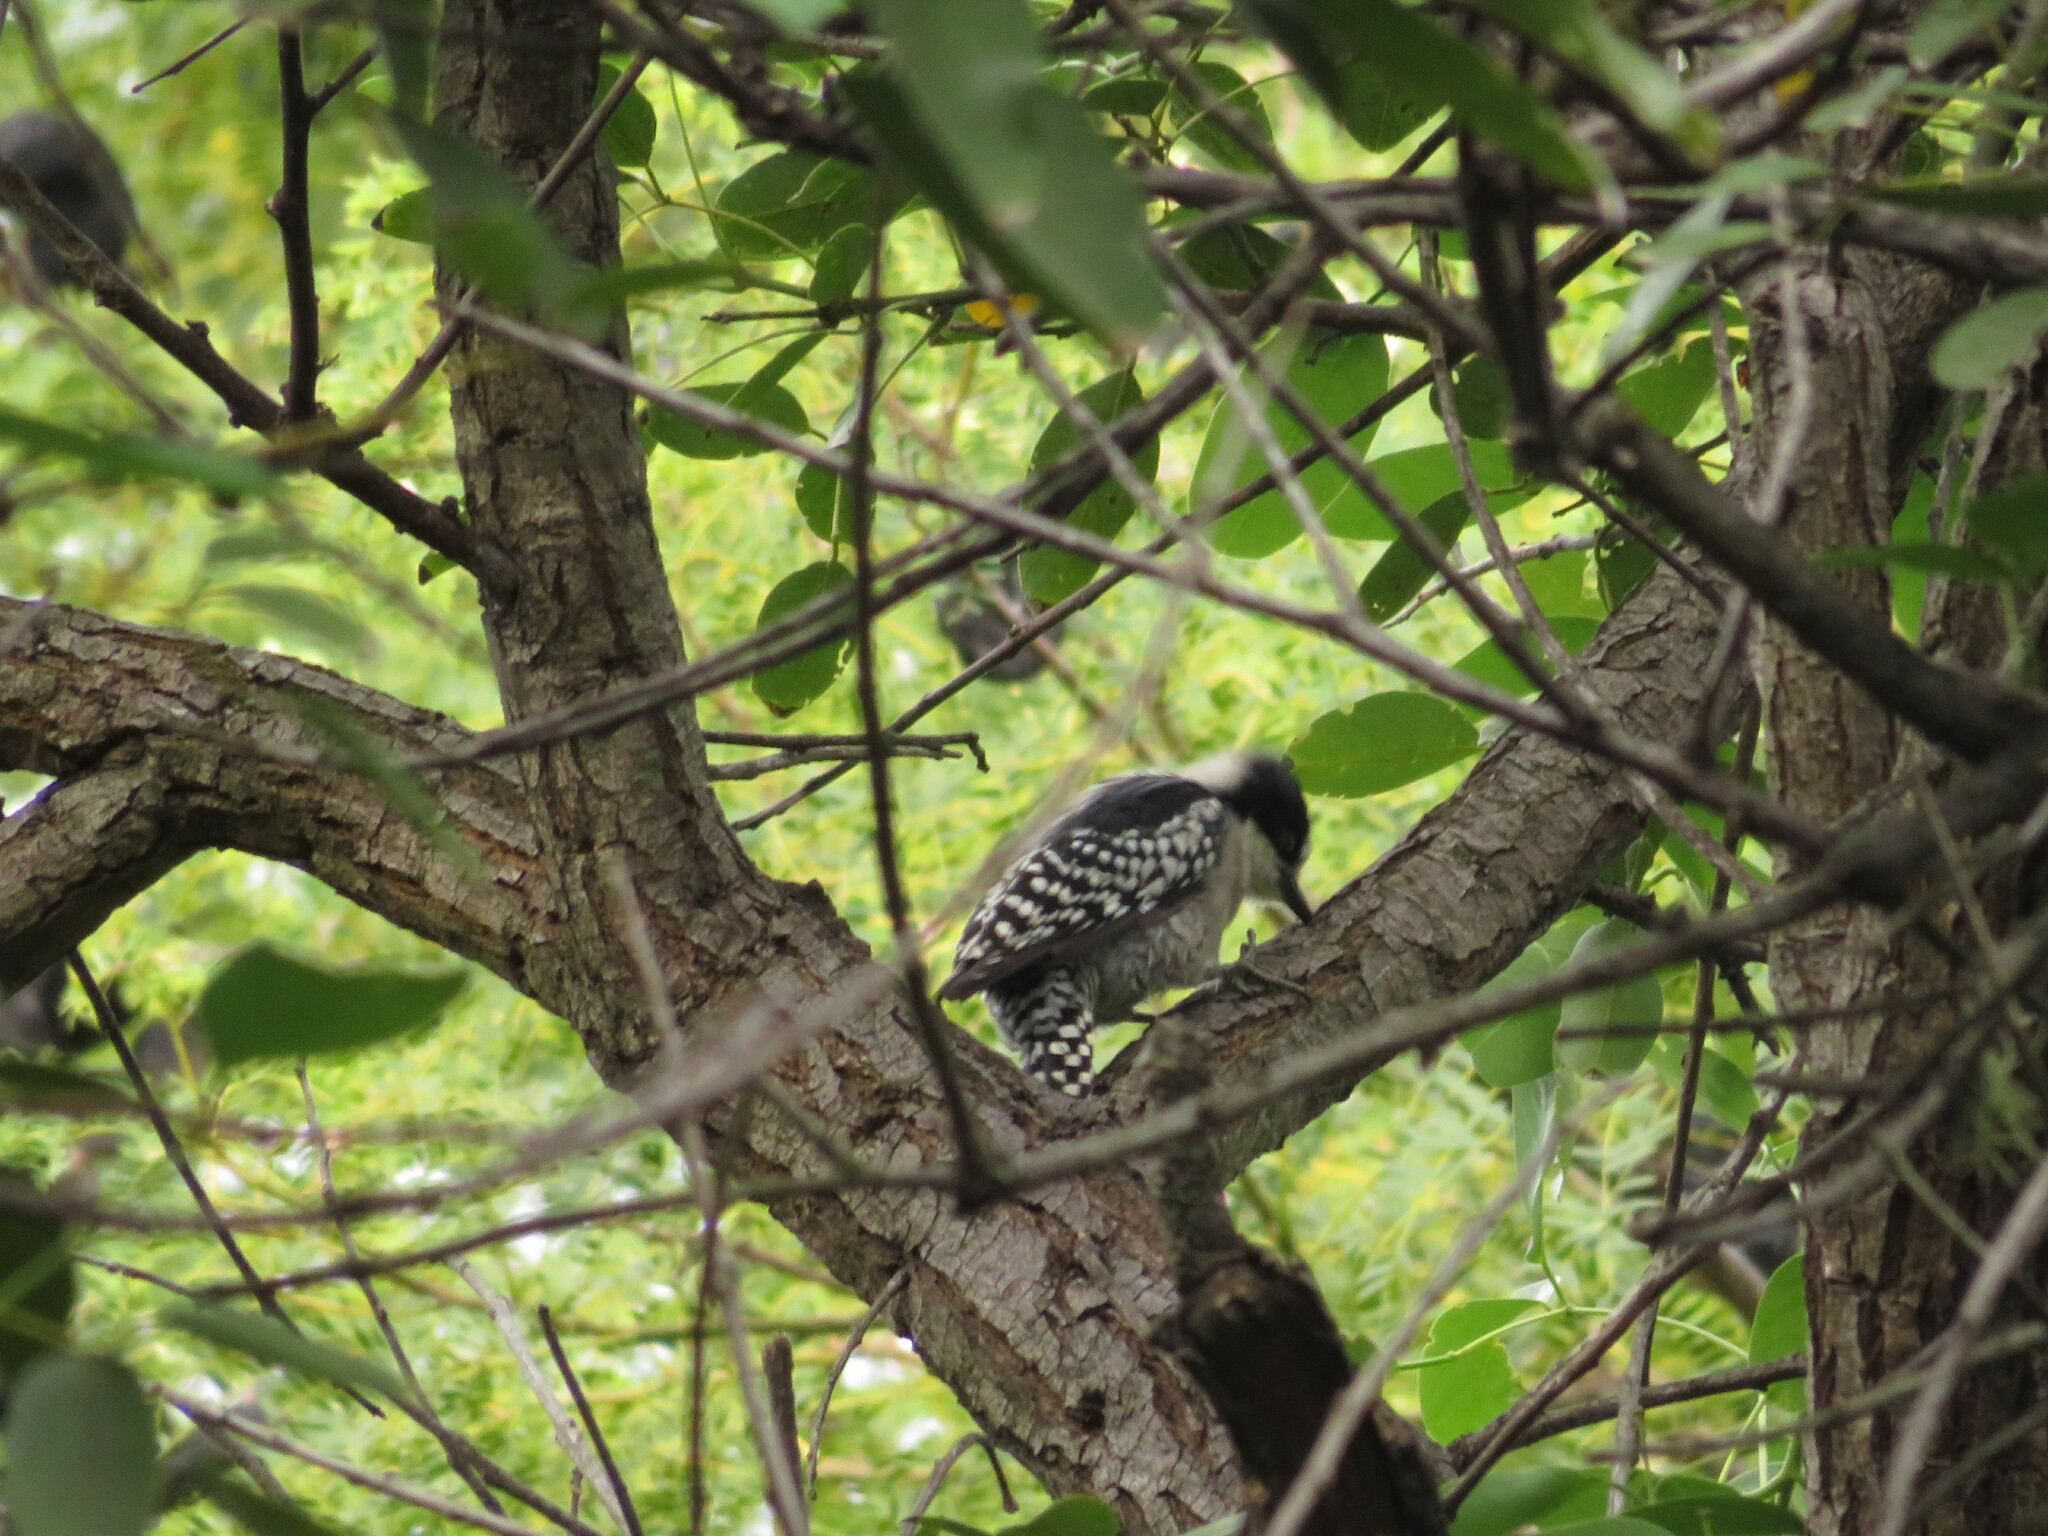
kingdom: Animalia
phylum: Chordata
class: Aves
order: Piciformes
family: Picidae
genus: Melanerpes
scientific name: Melanerpes cactorum
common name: White-fronted woodpecker
